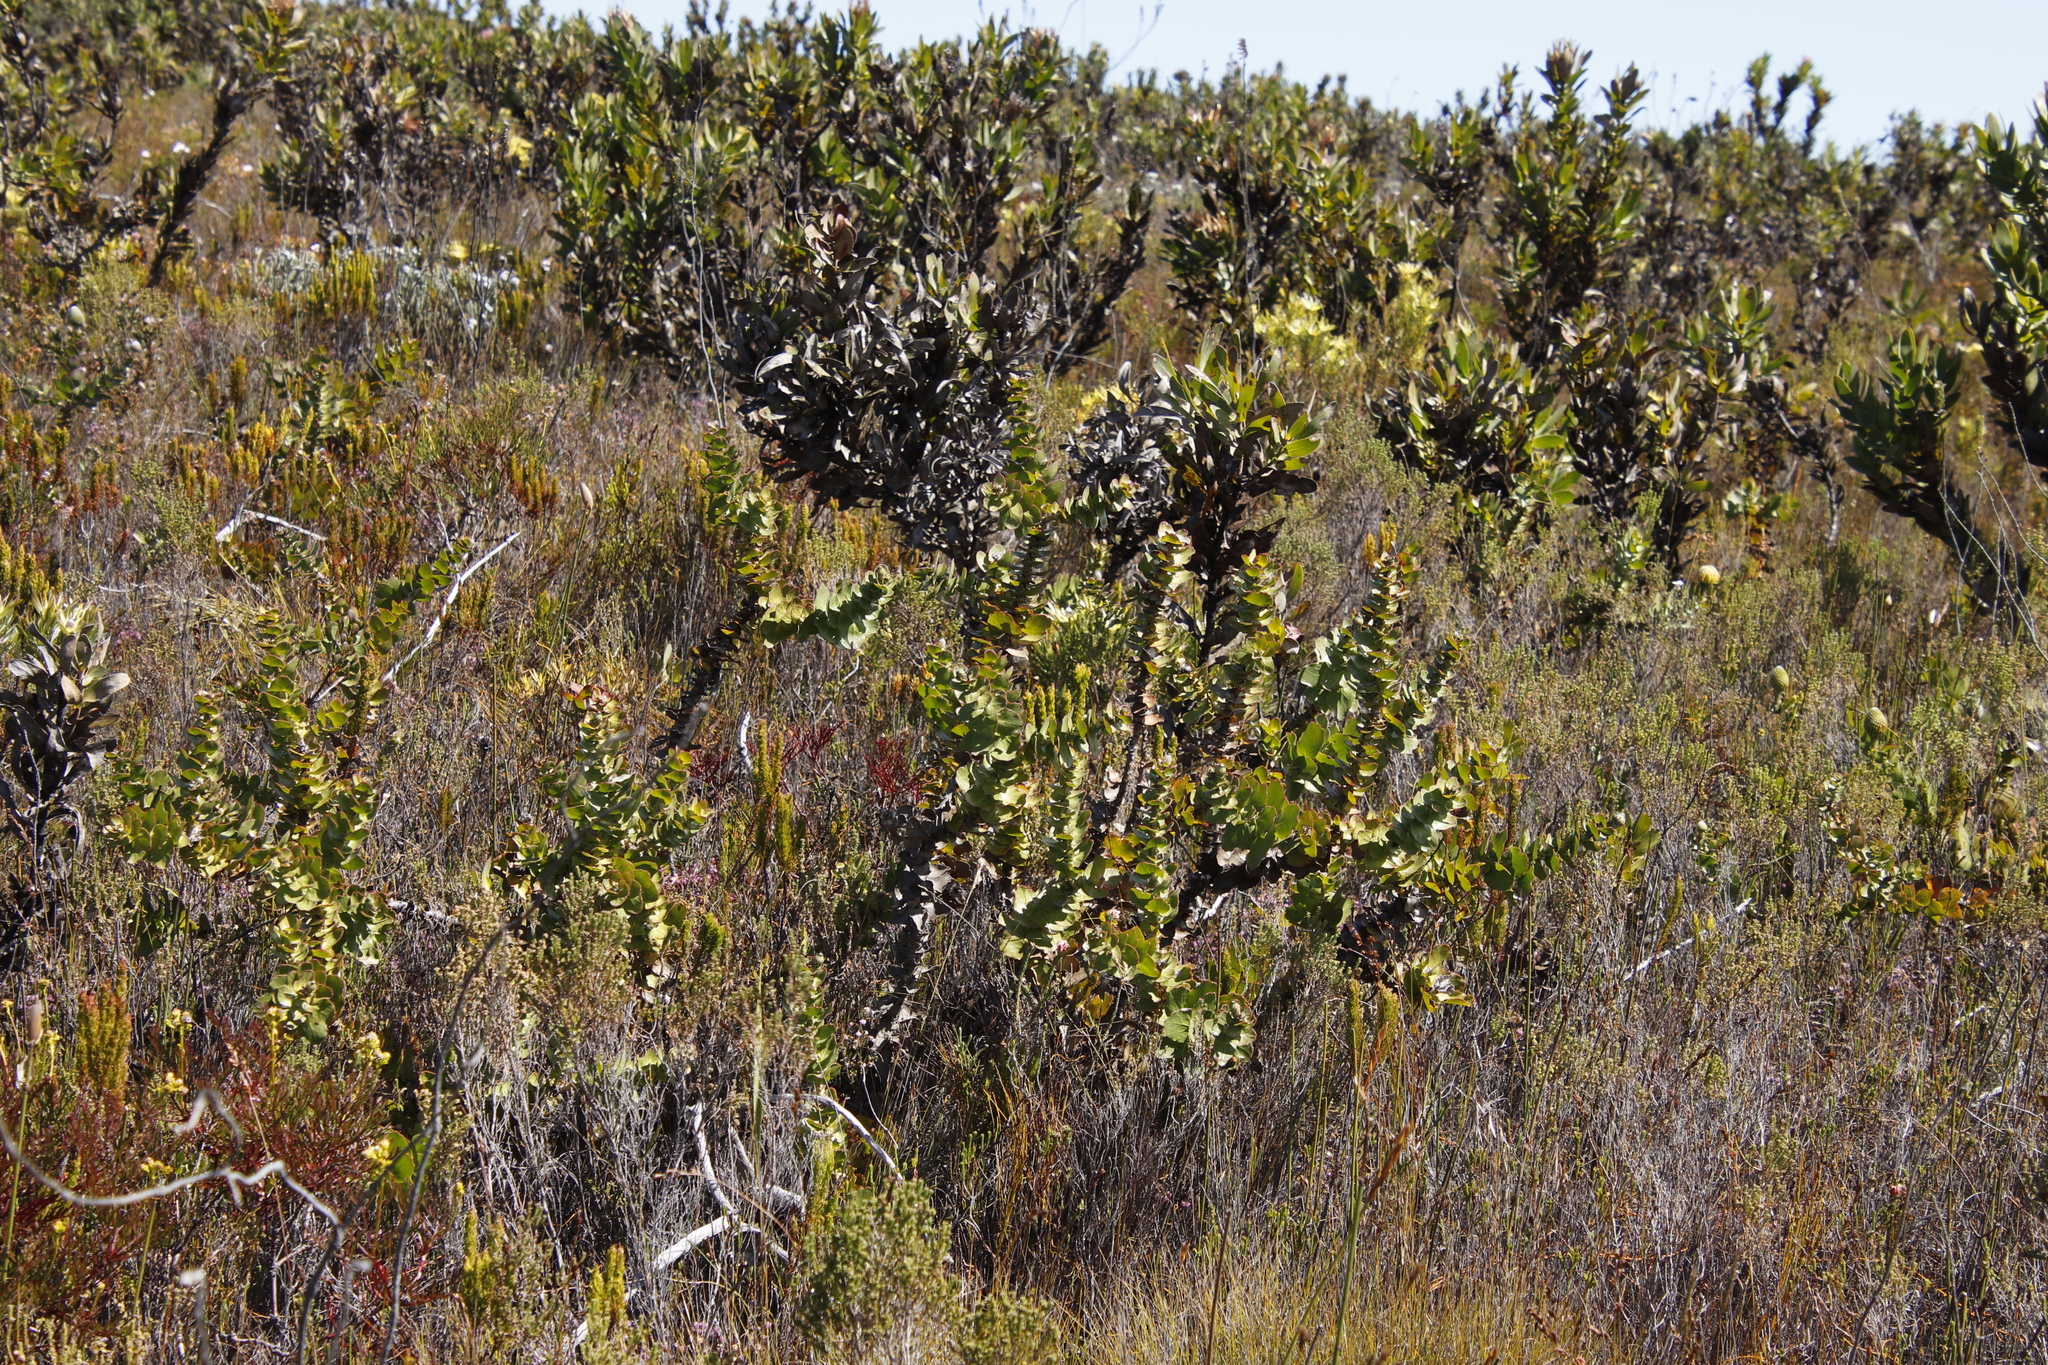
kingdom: Plantae
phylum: Tracheophyta
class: Magnoliopsida
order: Proteales
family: Proteaceae
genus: Leucospermum
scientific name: Leucospermum cordifolium
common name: Red pincushion-protea
